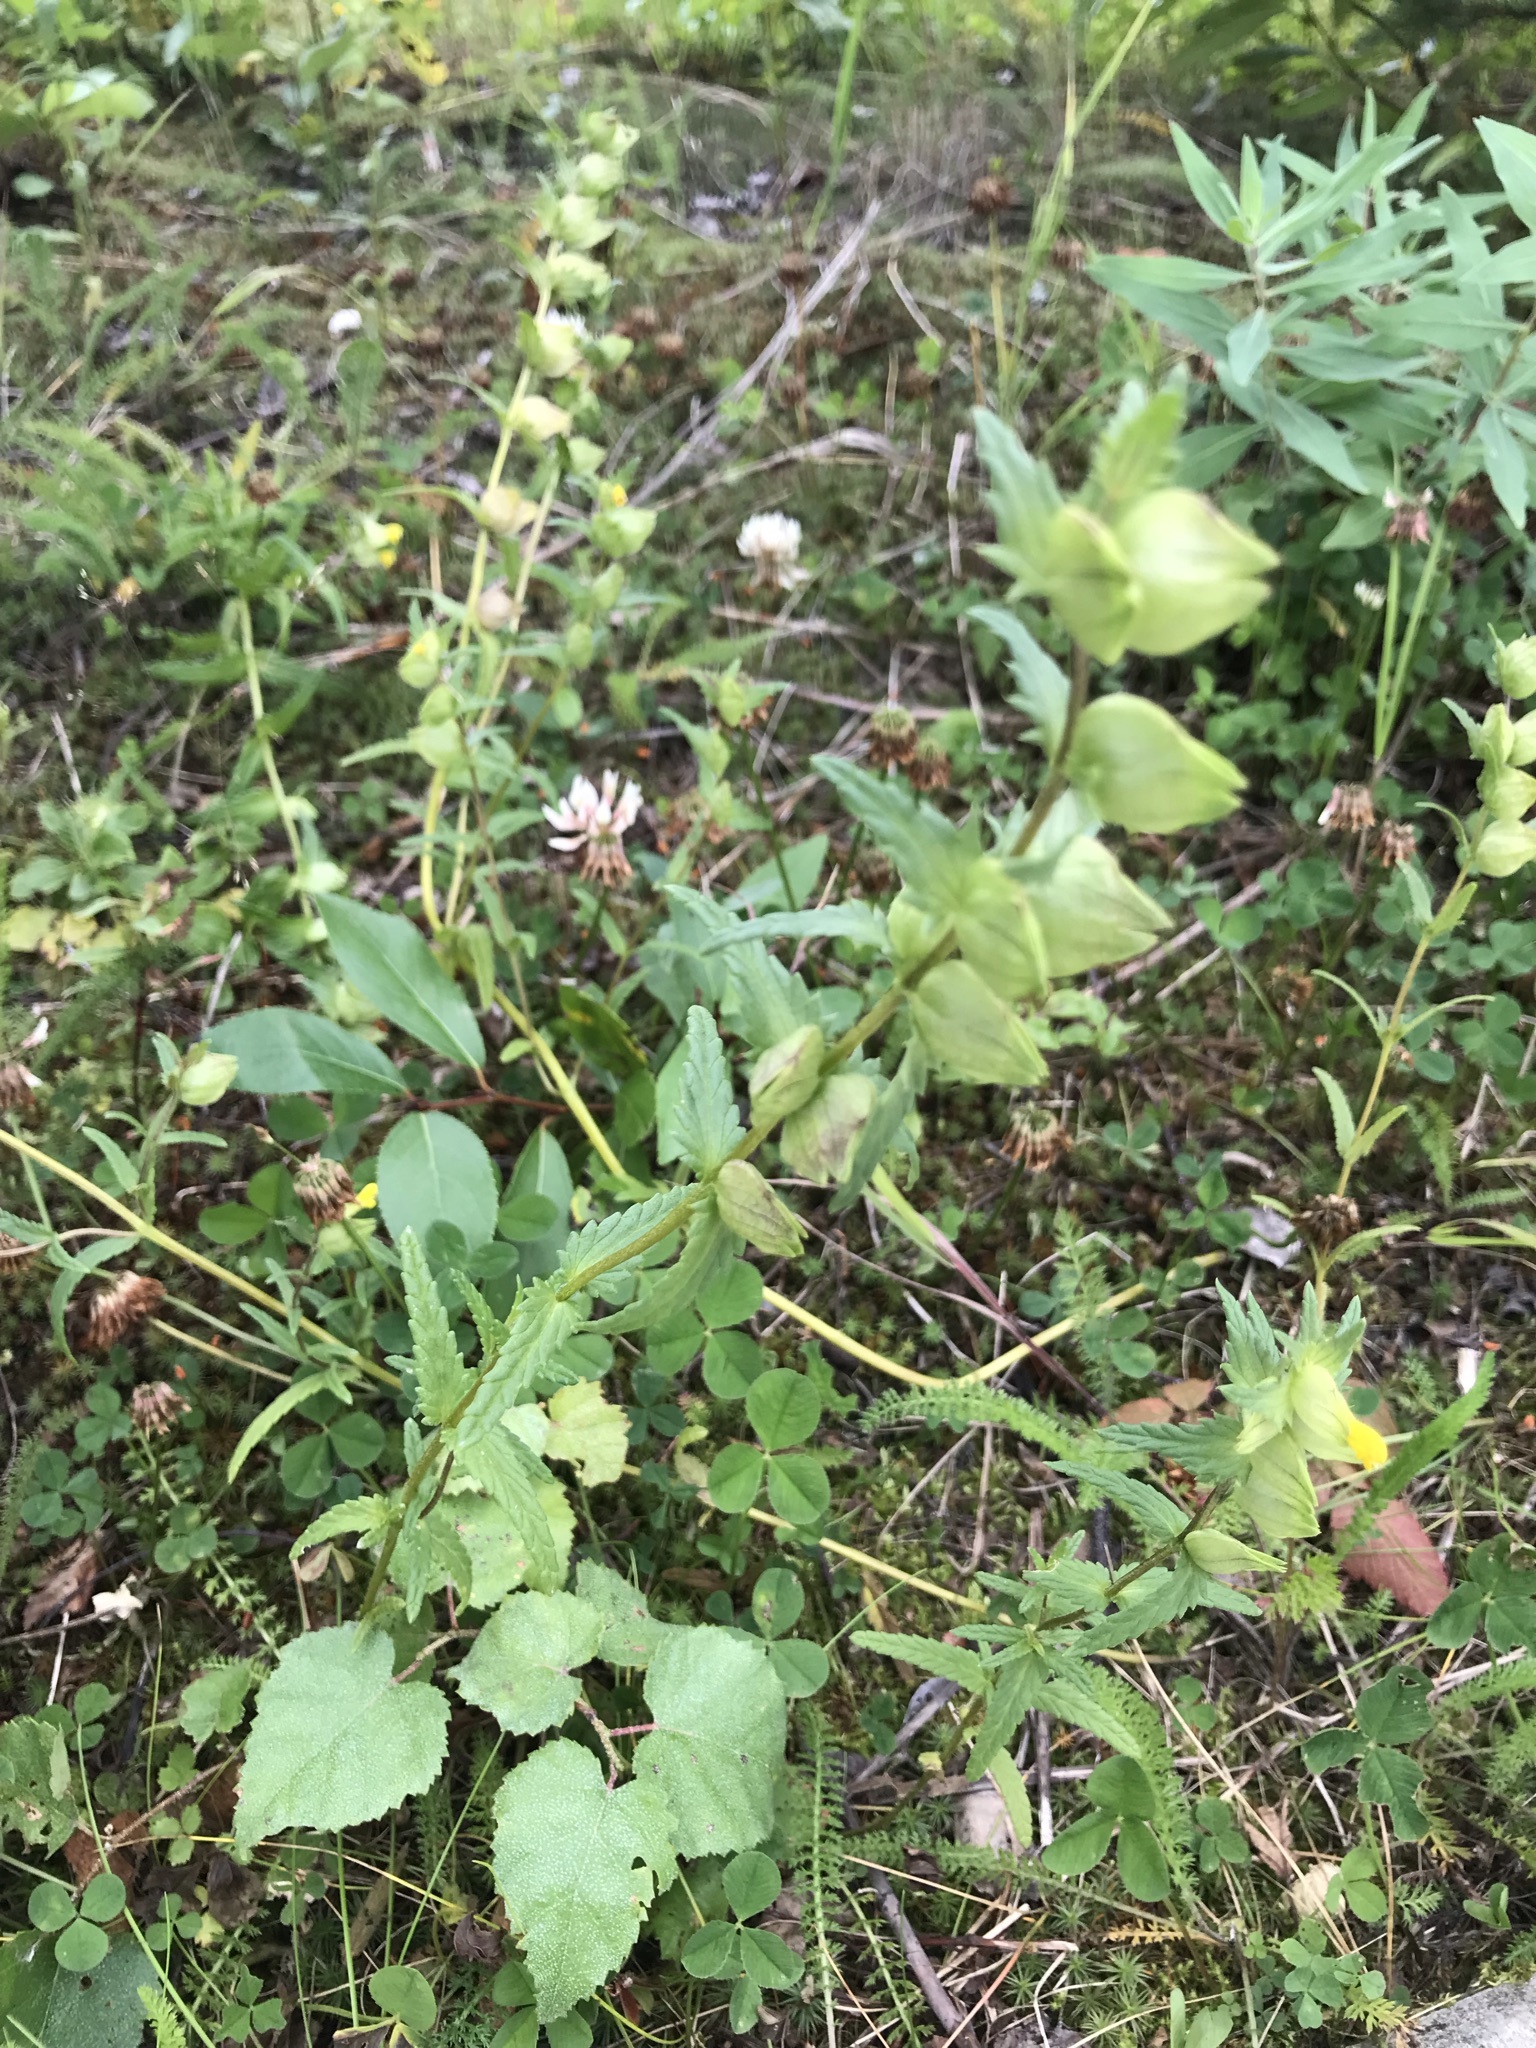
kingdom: Plantae
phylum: Tracheophyta
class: Magnoliopsida
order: Lamiales
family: Orobanchaceae
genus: Rhinanthus
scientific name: Rhinanthus minor
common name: Yellow-rattle
